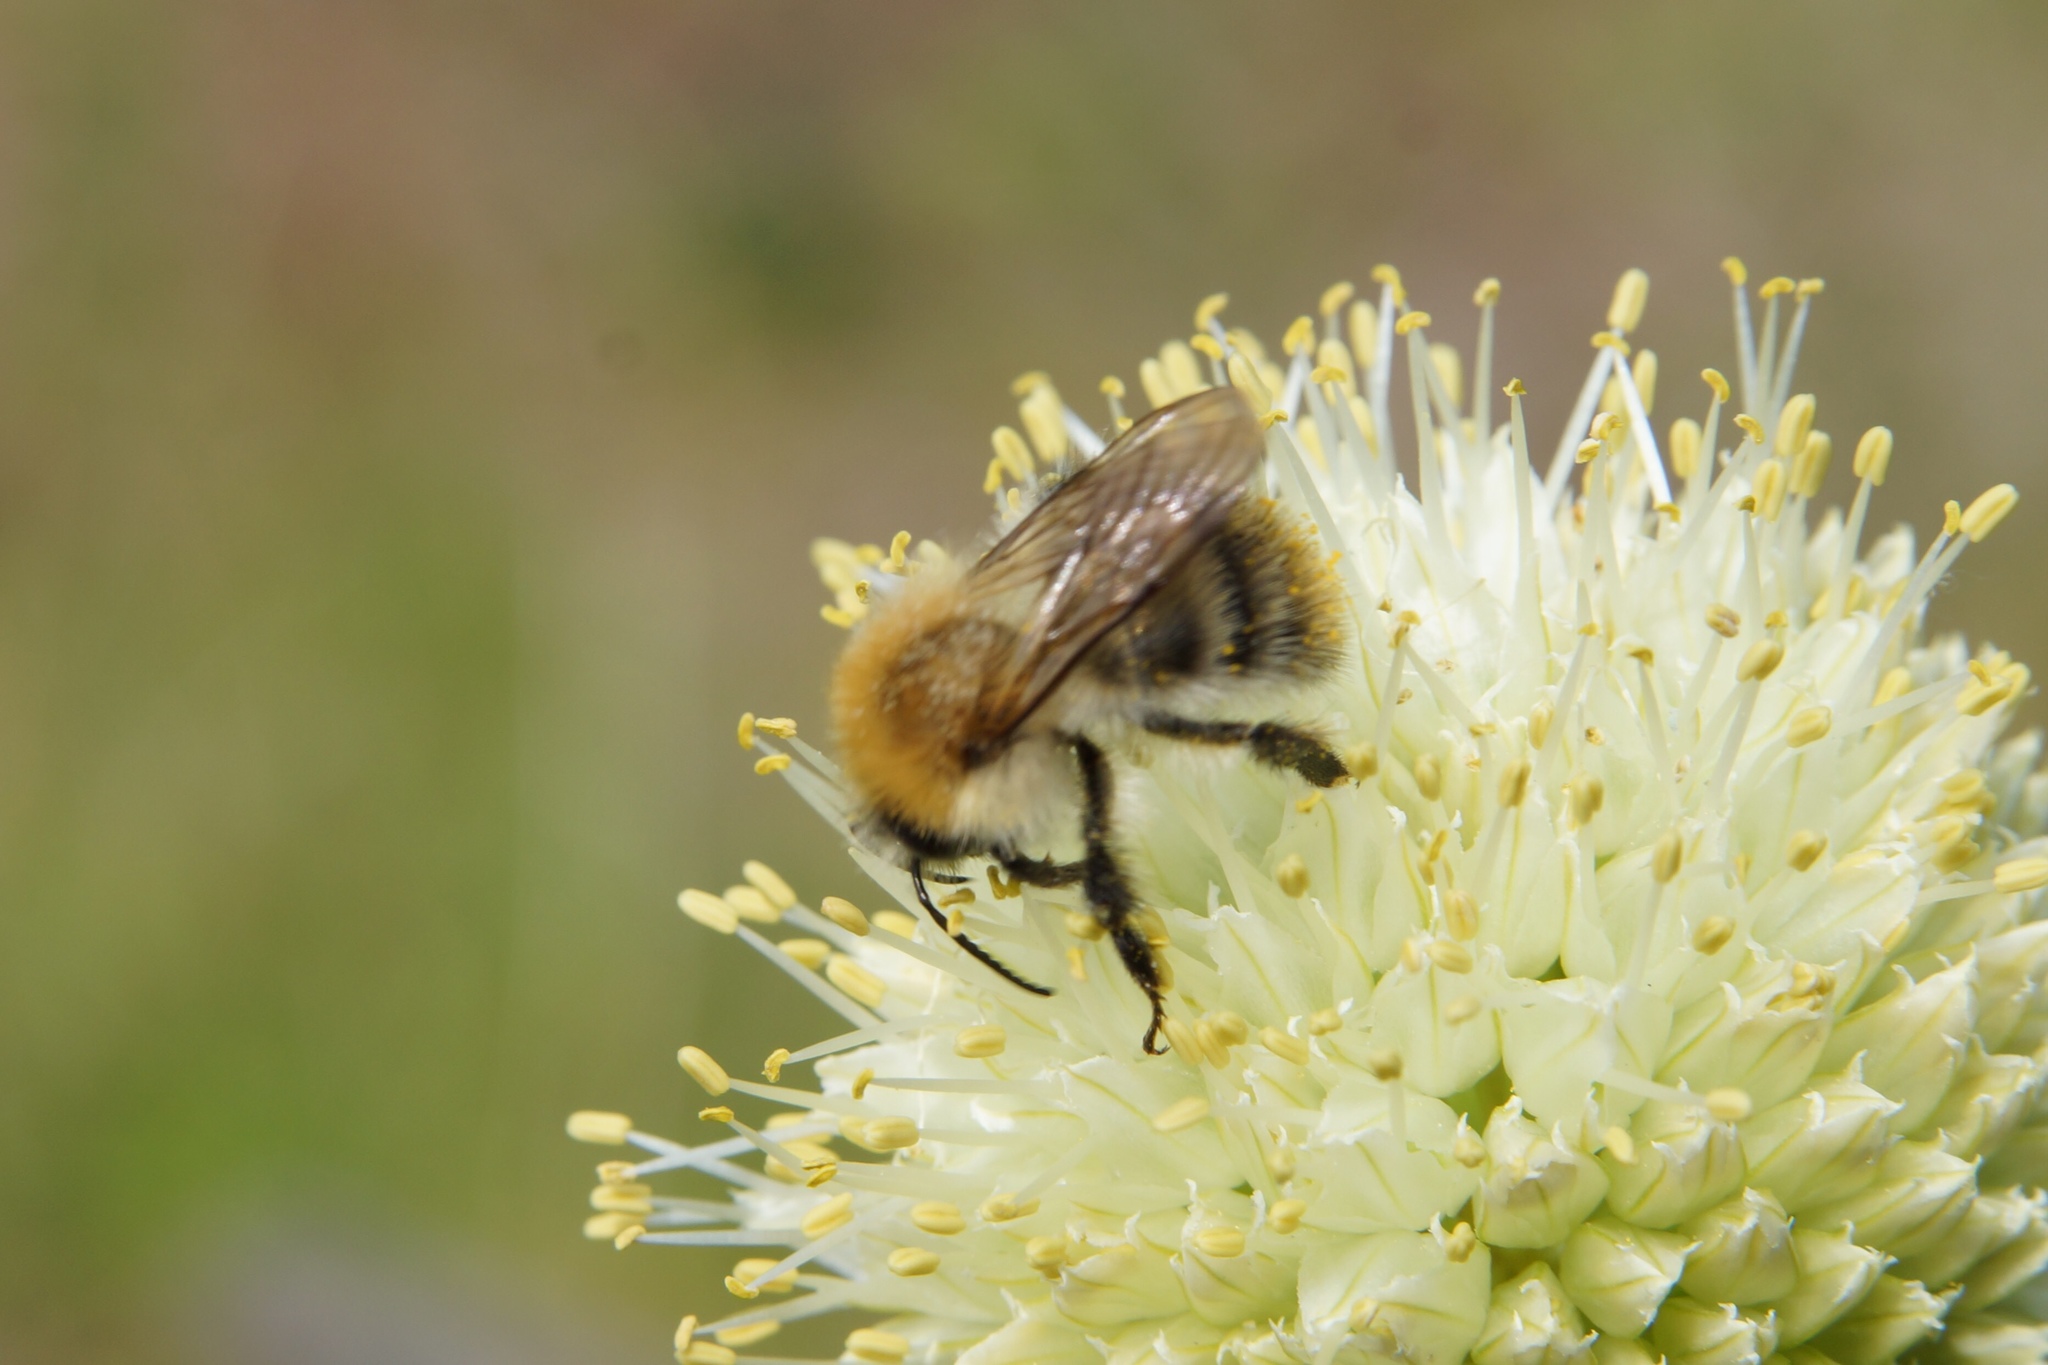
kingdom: Animalia
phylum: Arthropoda
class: Insecta
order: Hymenoptera
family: Apidae
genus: Bombus
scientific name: Bombus pascuorum
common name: Common carder bee
